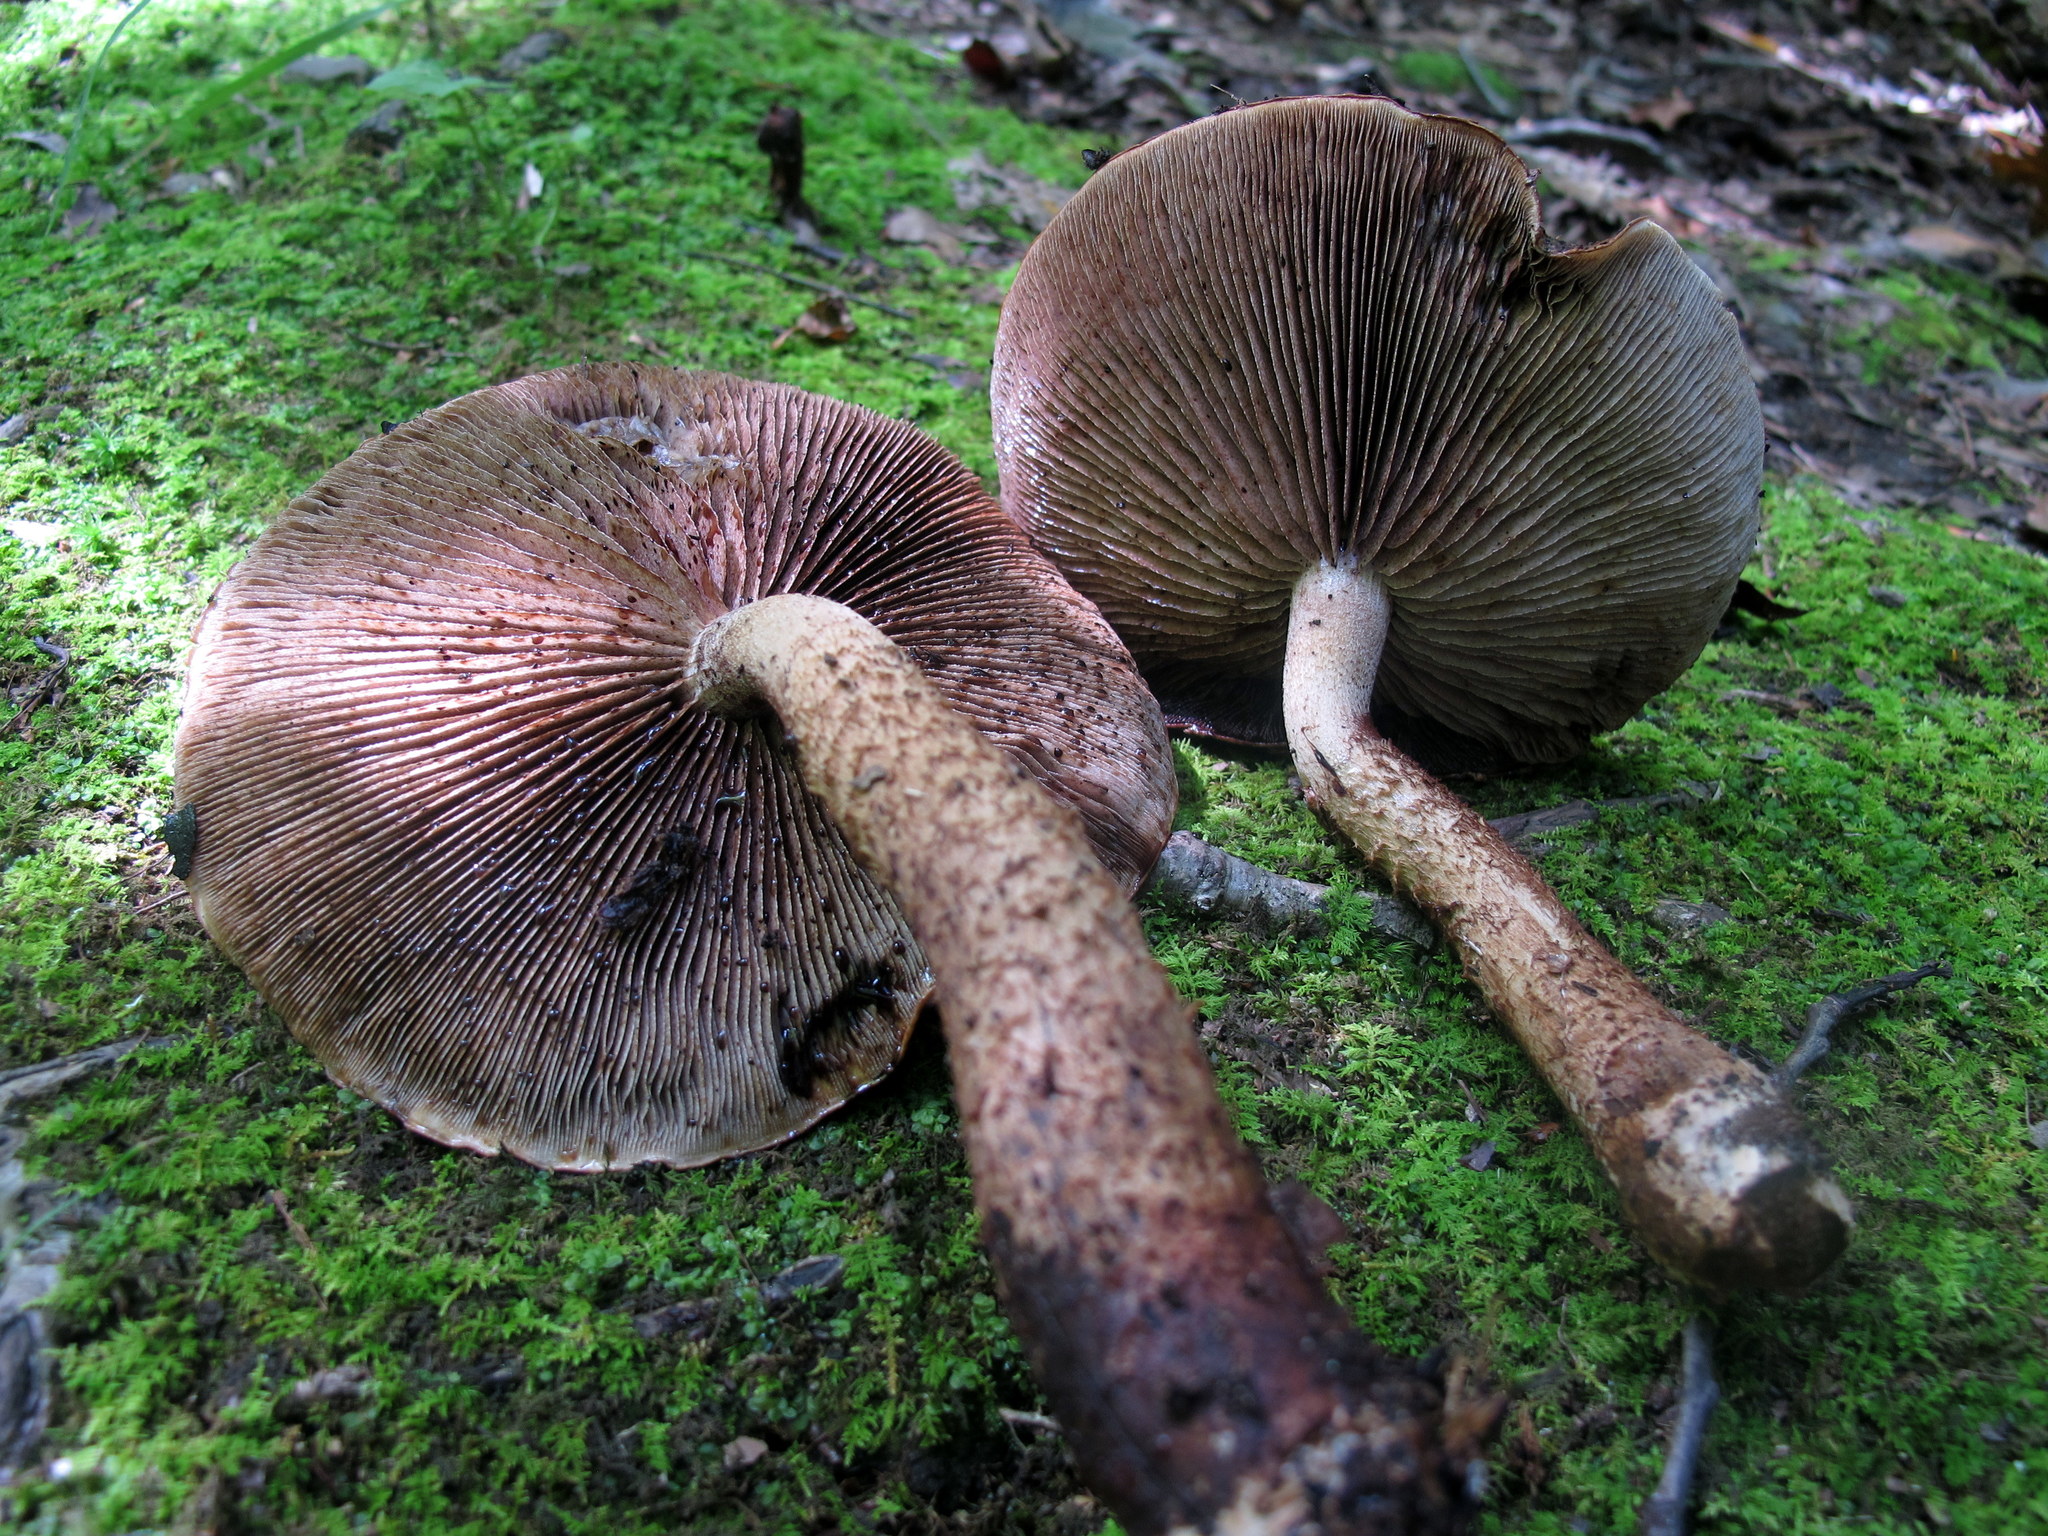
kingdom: Fungi
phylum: Basidiomycota
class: Agaricomycetes
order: Agaricales
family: Tubariaceae
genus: Hemistropharia
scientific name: Hemistropharia albocrenulata
